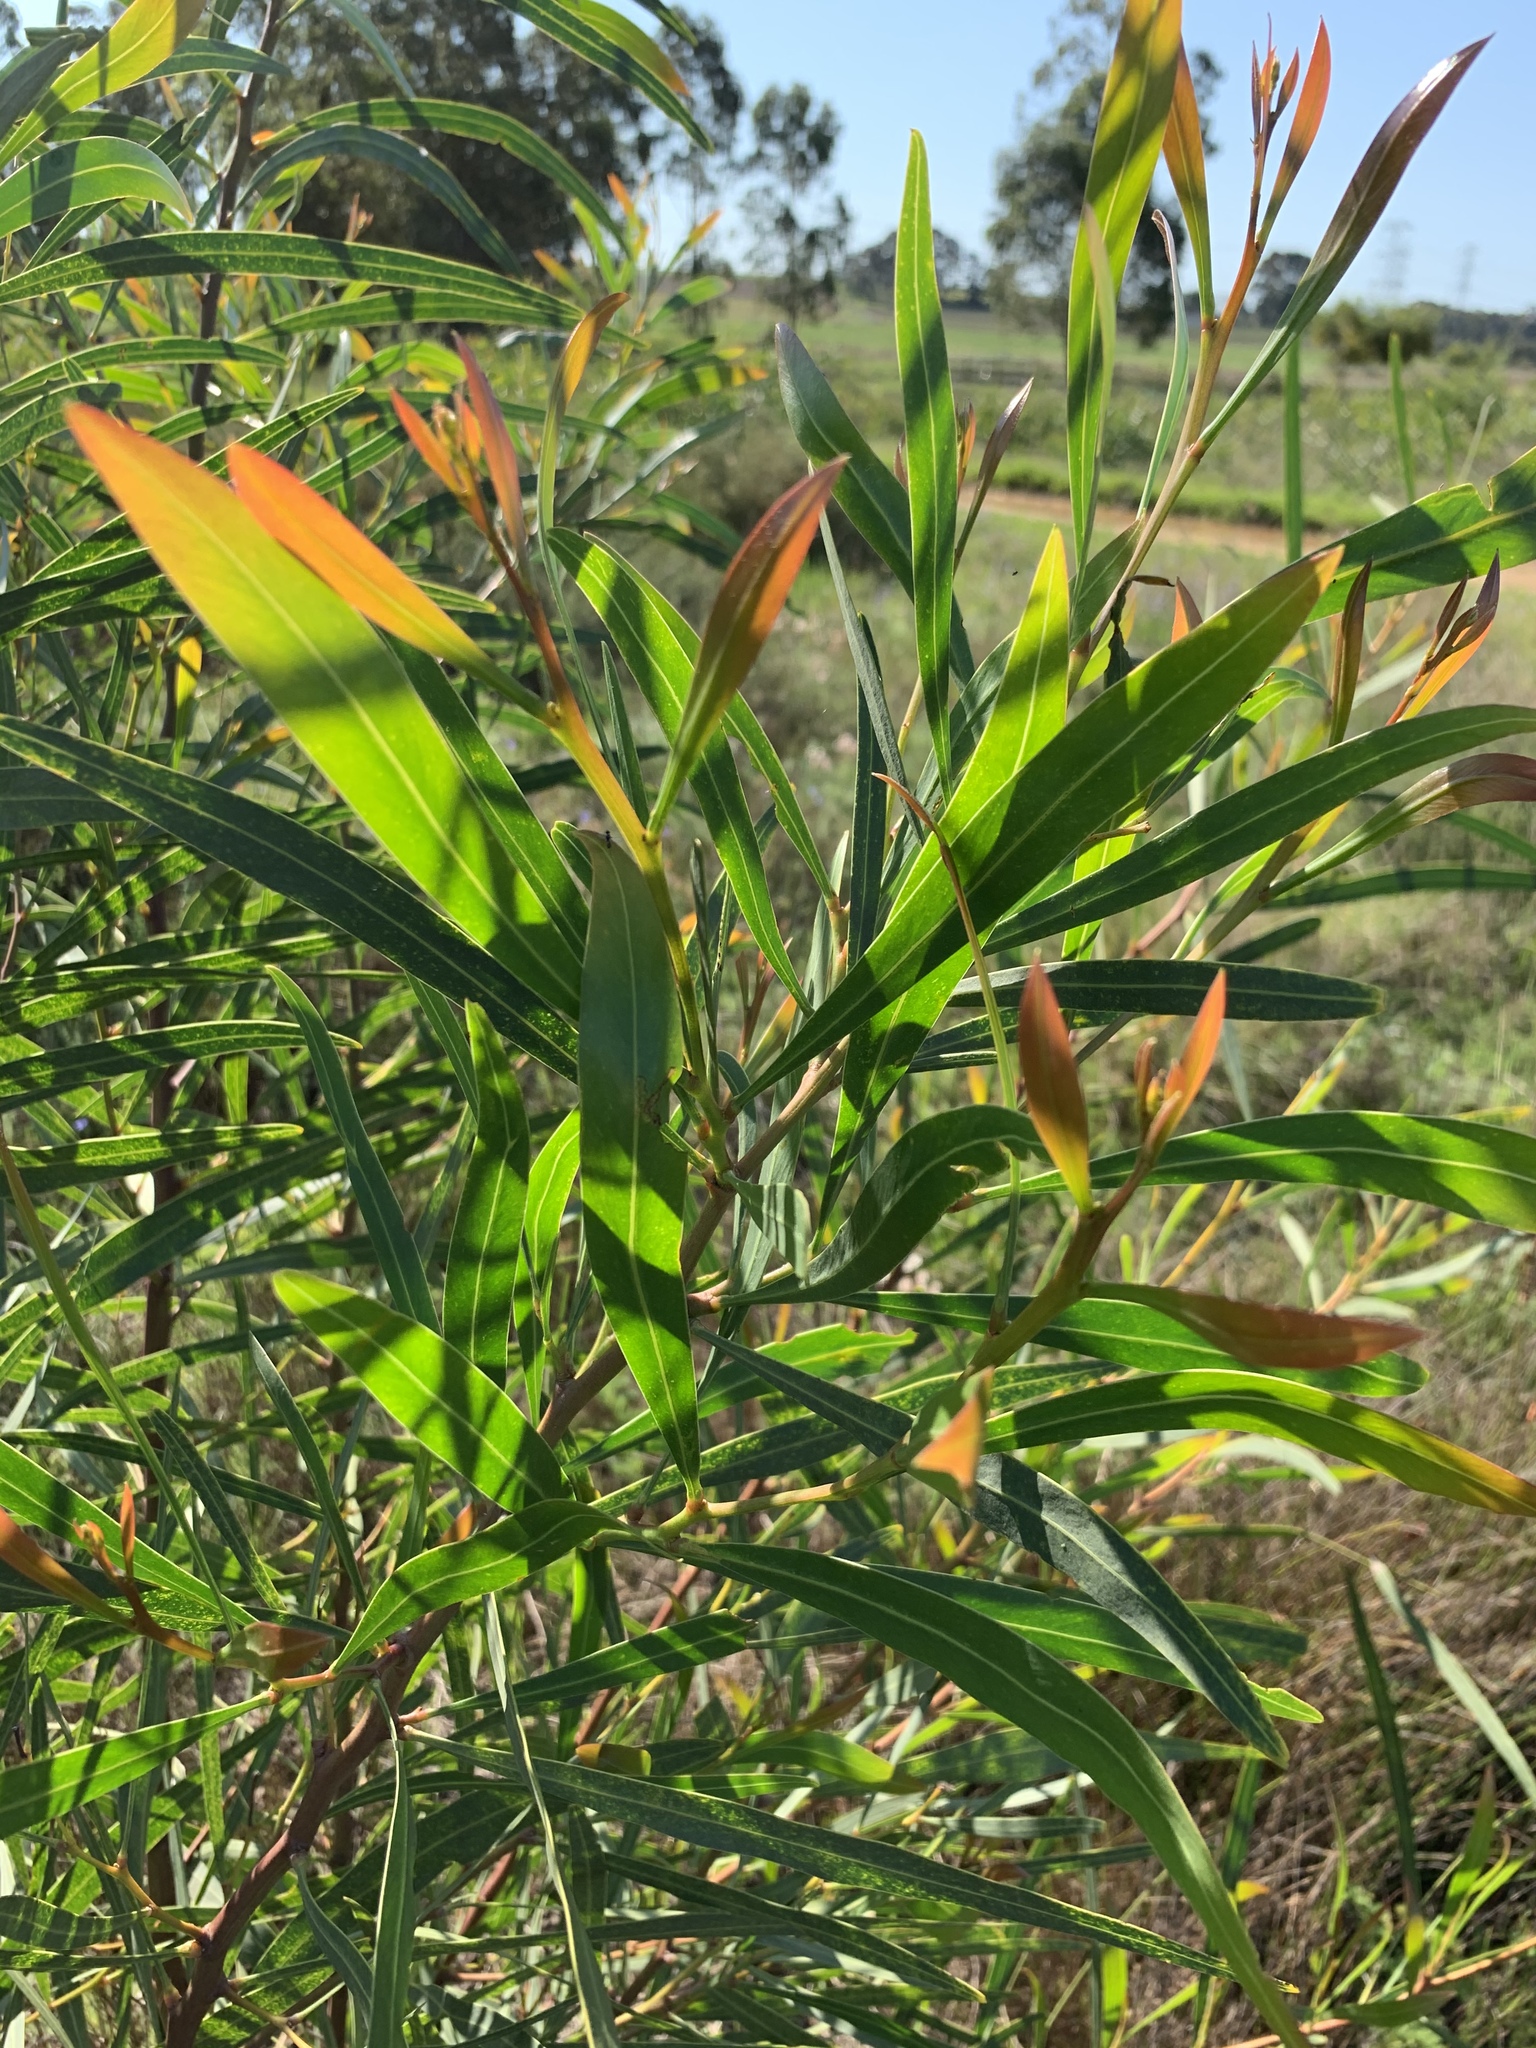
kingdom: Plantae
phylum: Tracheophyta
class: Magnoliopsida
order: Fabales
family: Fabaceae
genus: Acacia
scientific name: Acacia saligna
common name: Orange wattle
